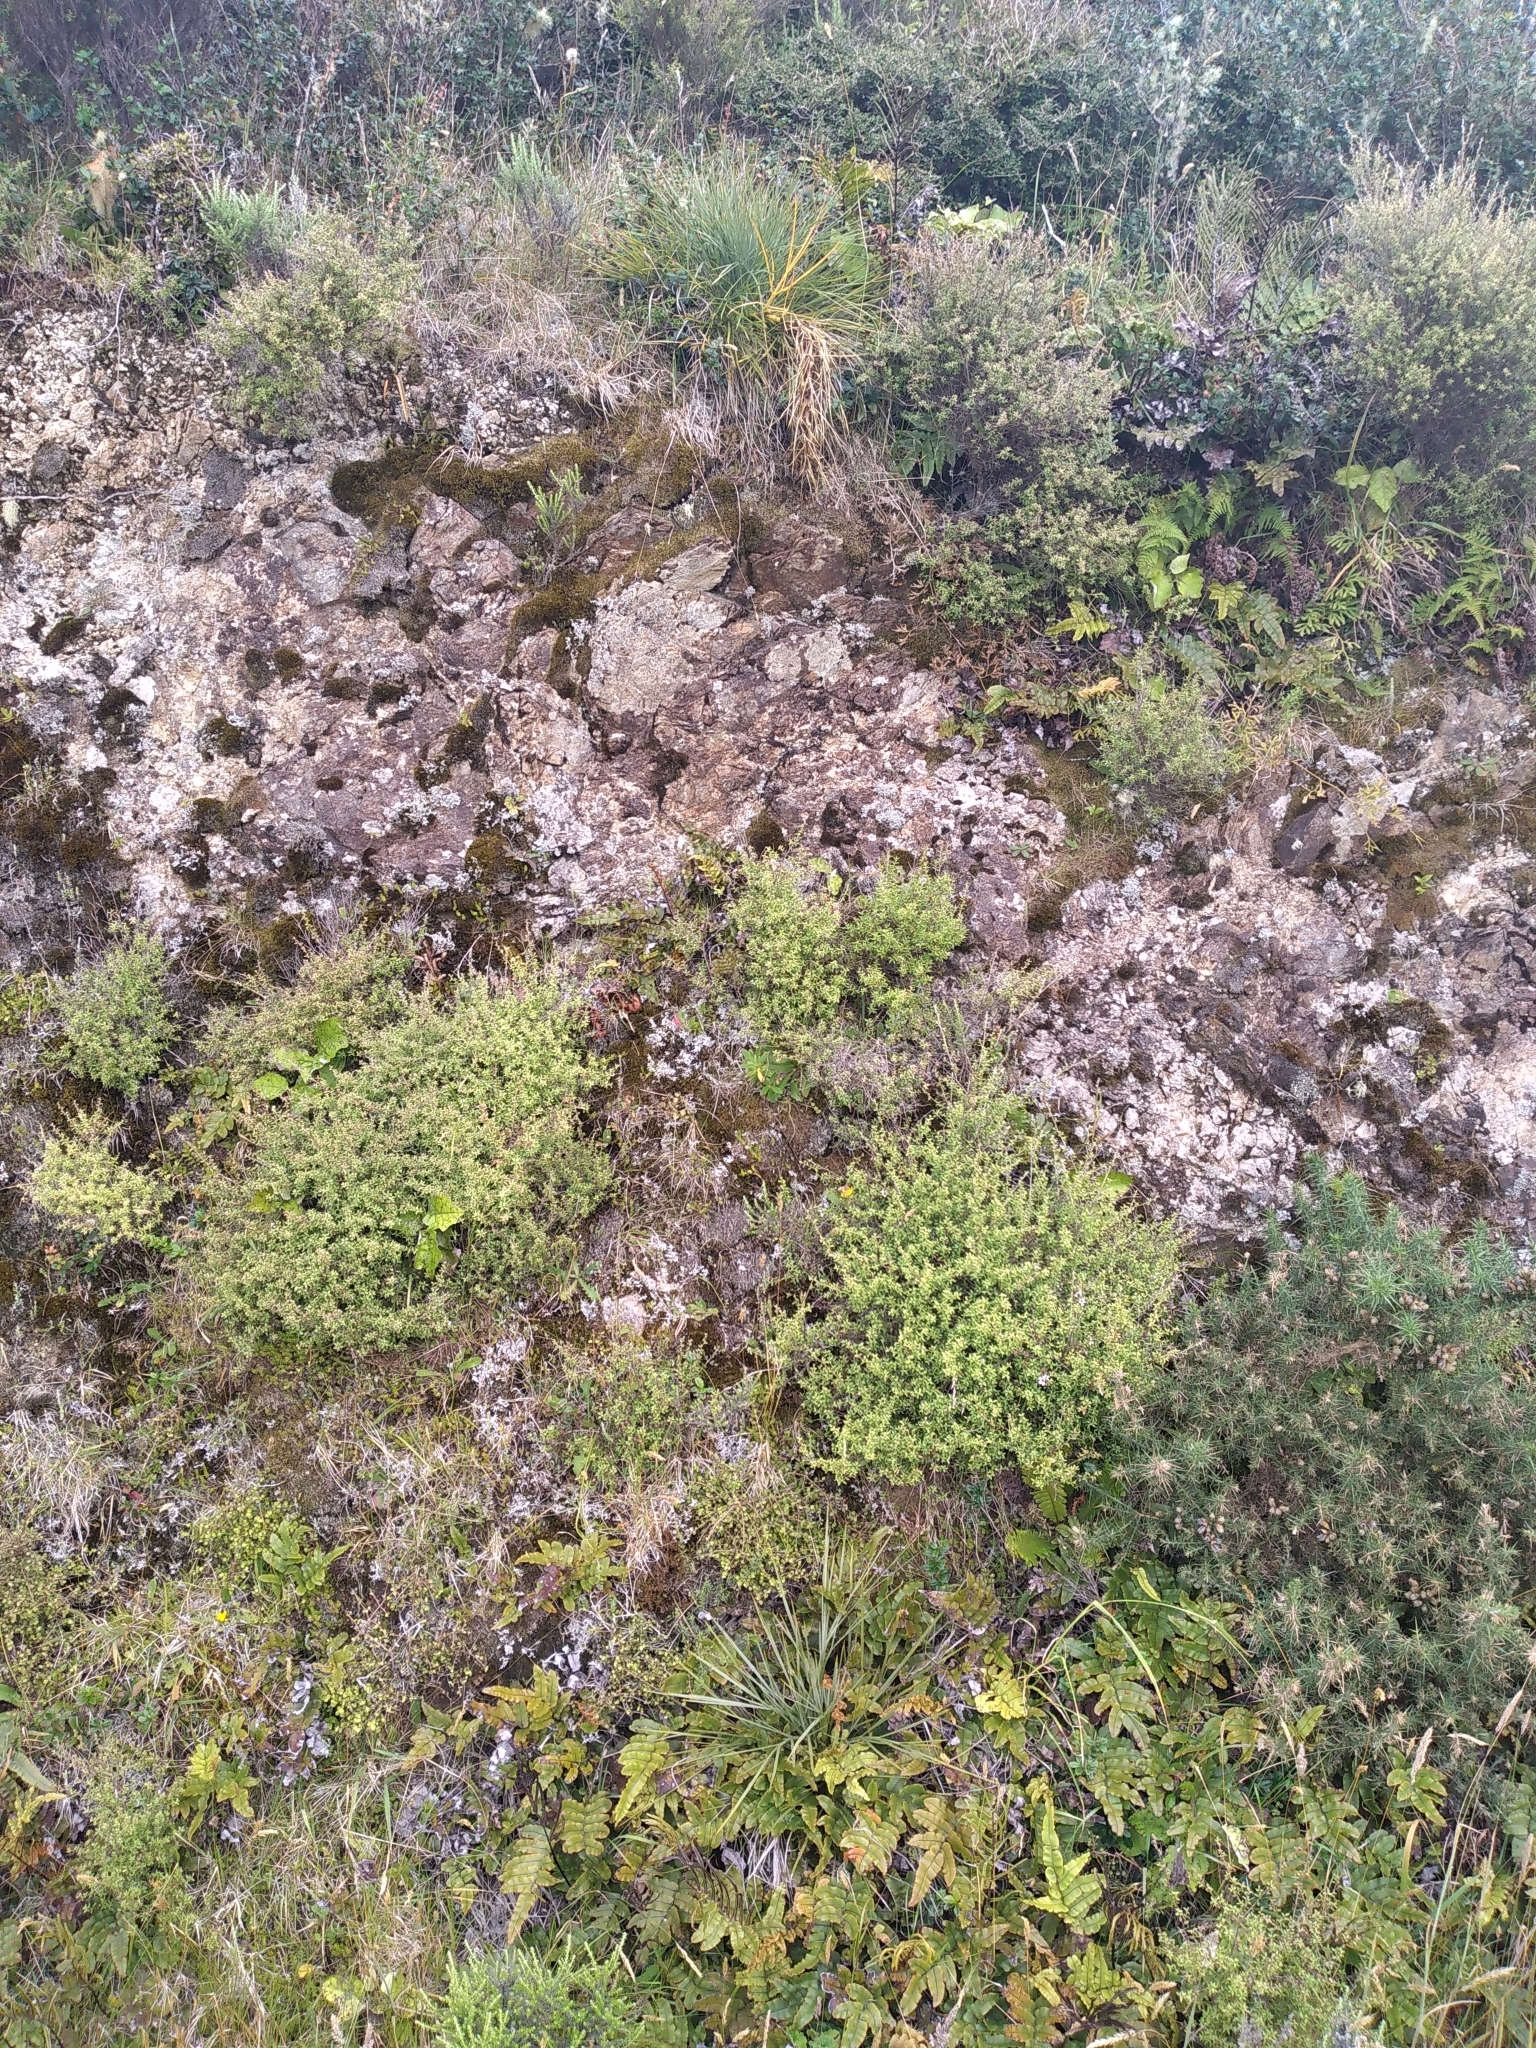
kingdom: Plantae
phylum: Tracheophyta
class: Magnoliopsida
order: Apiales
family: Apiaceae
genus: Aciphylla
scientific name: Aciphylla squarrosa
